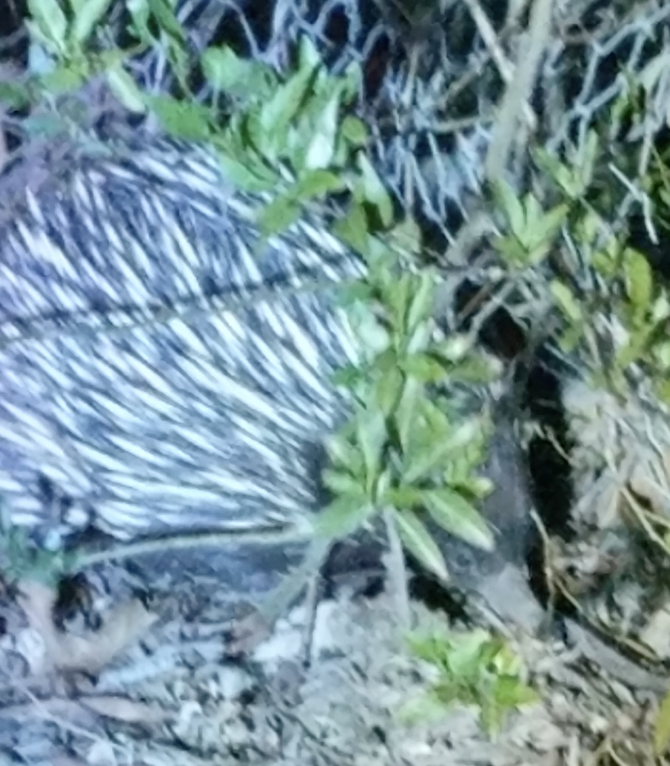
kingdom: Animalia
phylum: Chordata
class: Mammalia
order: Monotremata
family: Tachyglossidae
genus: Tachyglossus
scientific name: Tachyglossus aculeatus
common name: Short-beaked echidna
